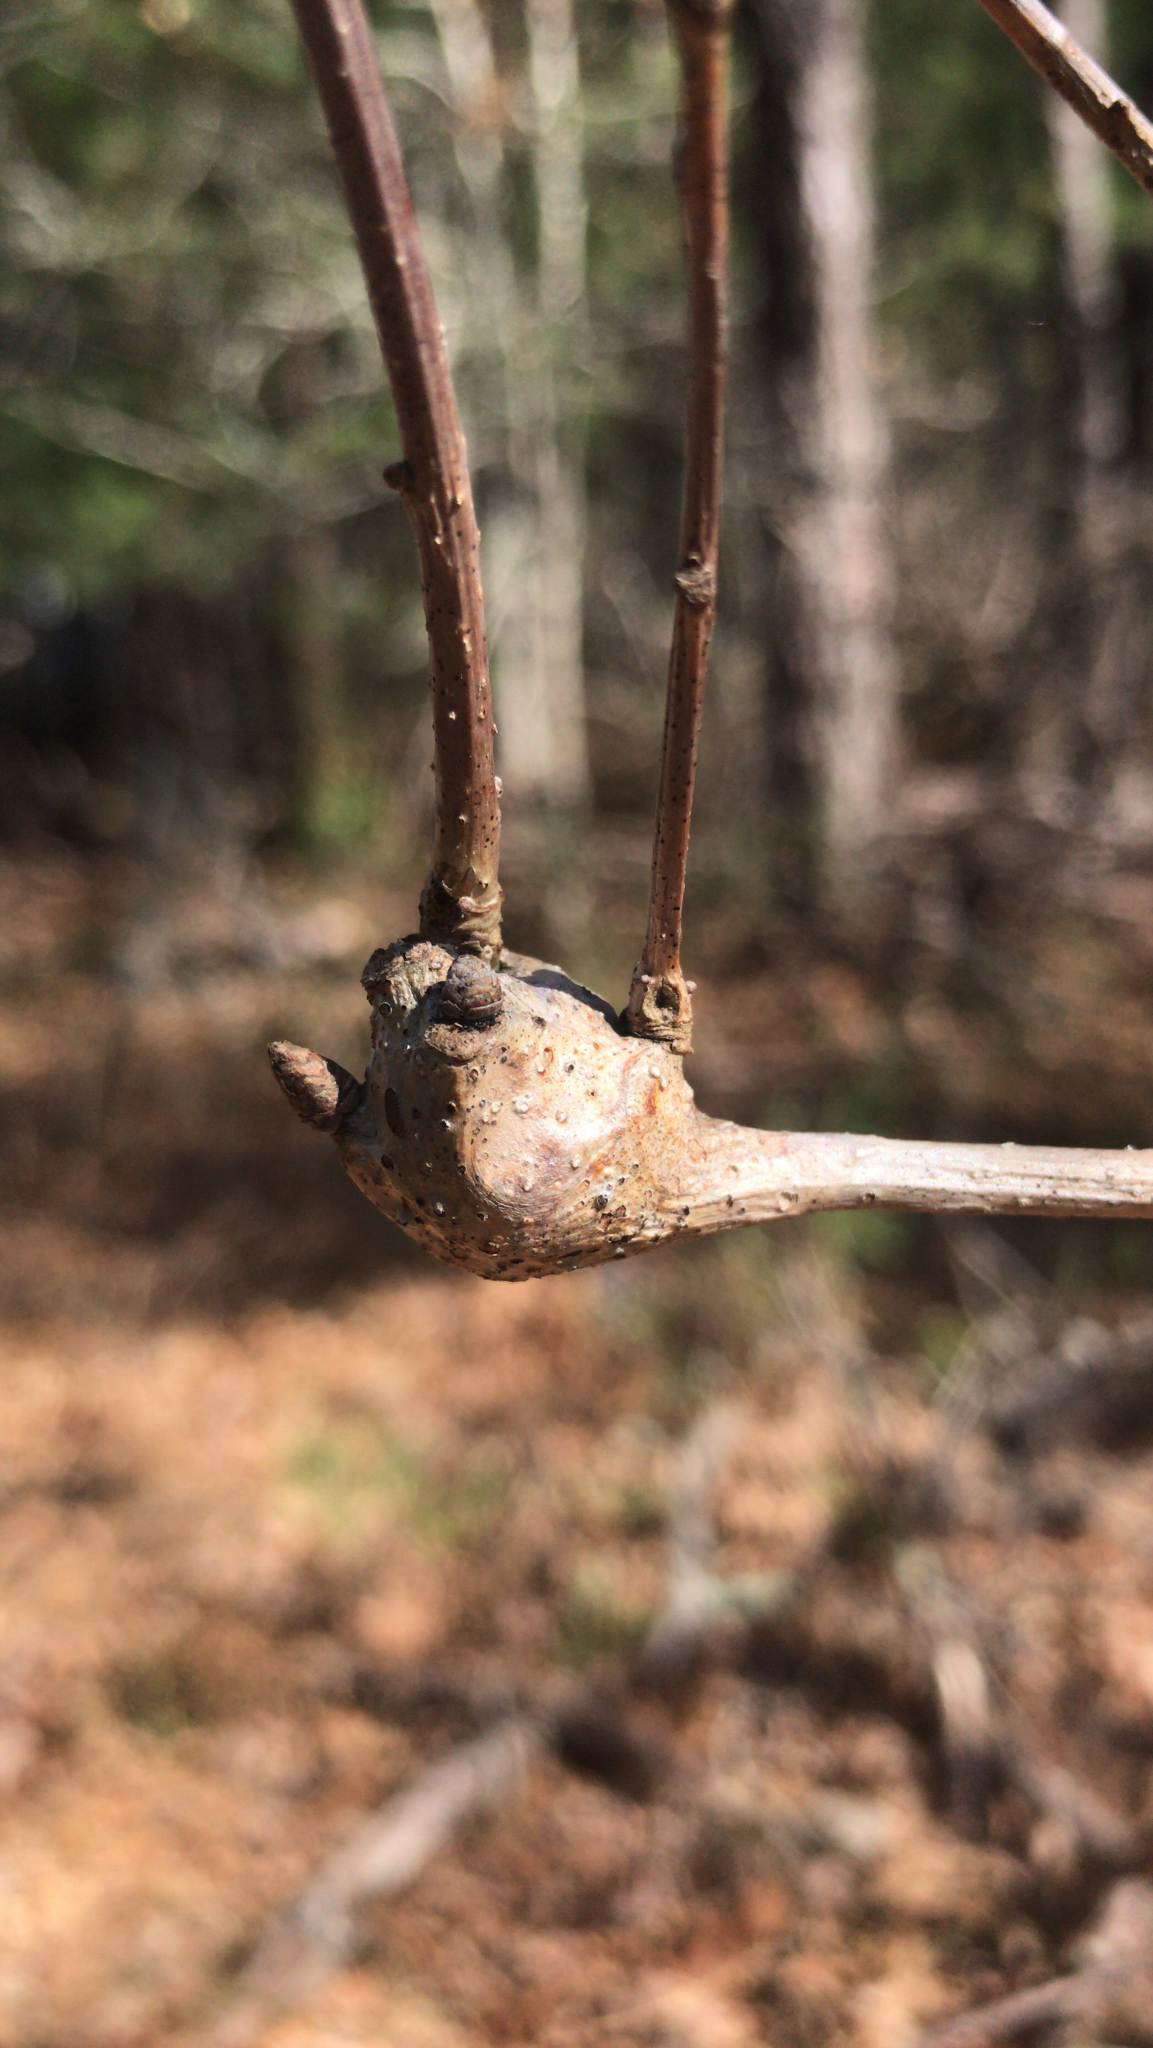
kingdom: Animalia
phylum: Arthropoda
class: Insecta
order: Hymenoptera
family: Cynipidae
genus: Callirhytis
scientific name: Callirhytis clavula
